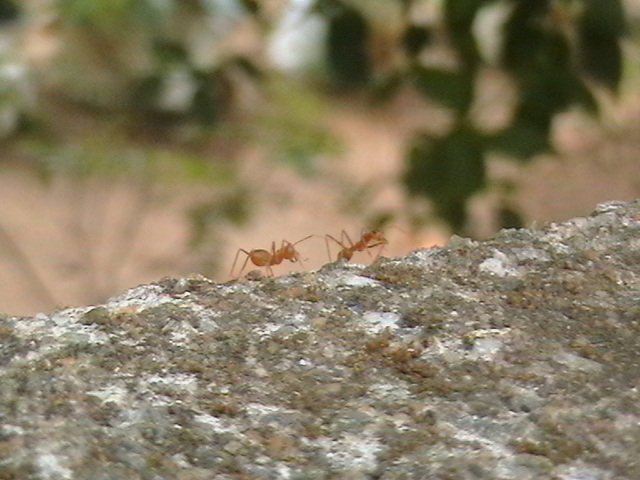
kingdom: Animalia
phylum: Arthropoda
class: Insecta
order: Hymenoptera
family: Formicidae
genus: Oecophylla
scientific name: Oecophylla smaragdina
